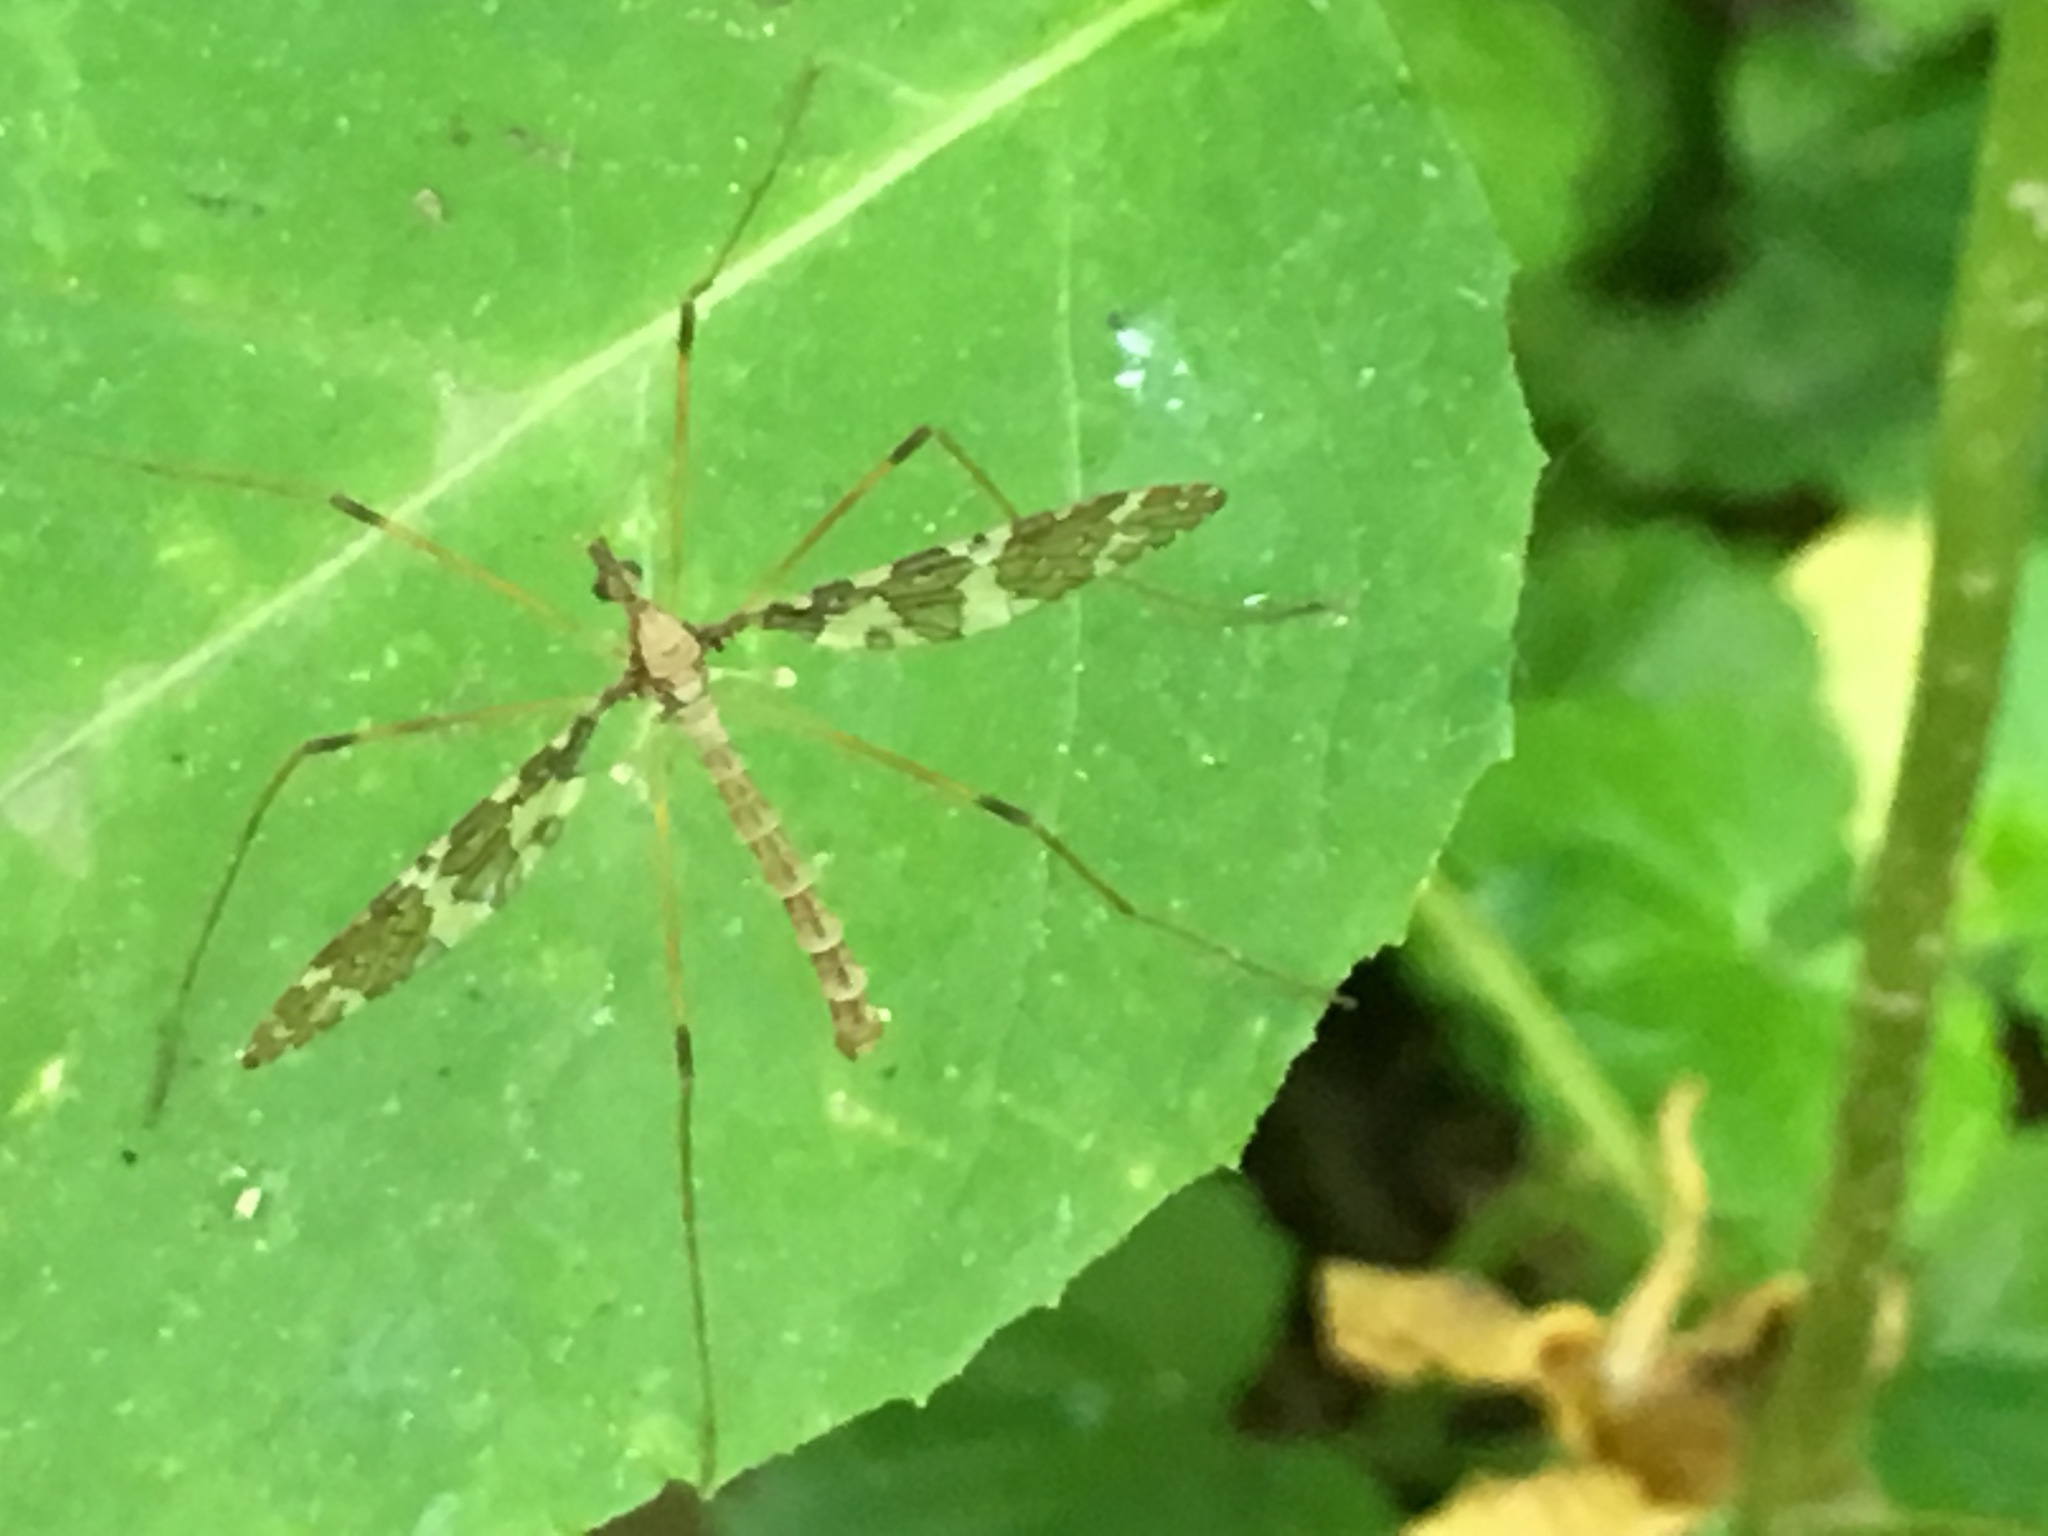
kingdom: Animalia
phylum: Arthropoda
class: Insecta
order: Diptera
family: Limoniidae
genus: Epiphragma
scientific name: Epiphragma fasciapenne
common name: Band-winged crane fly
